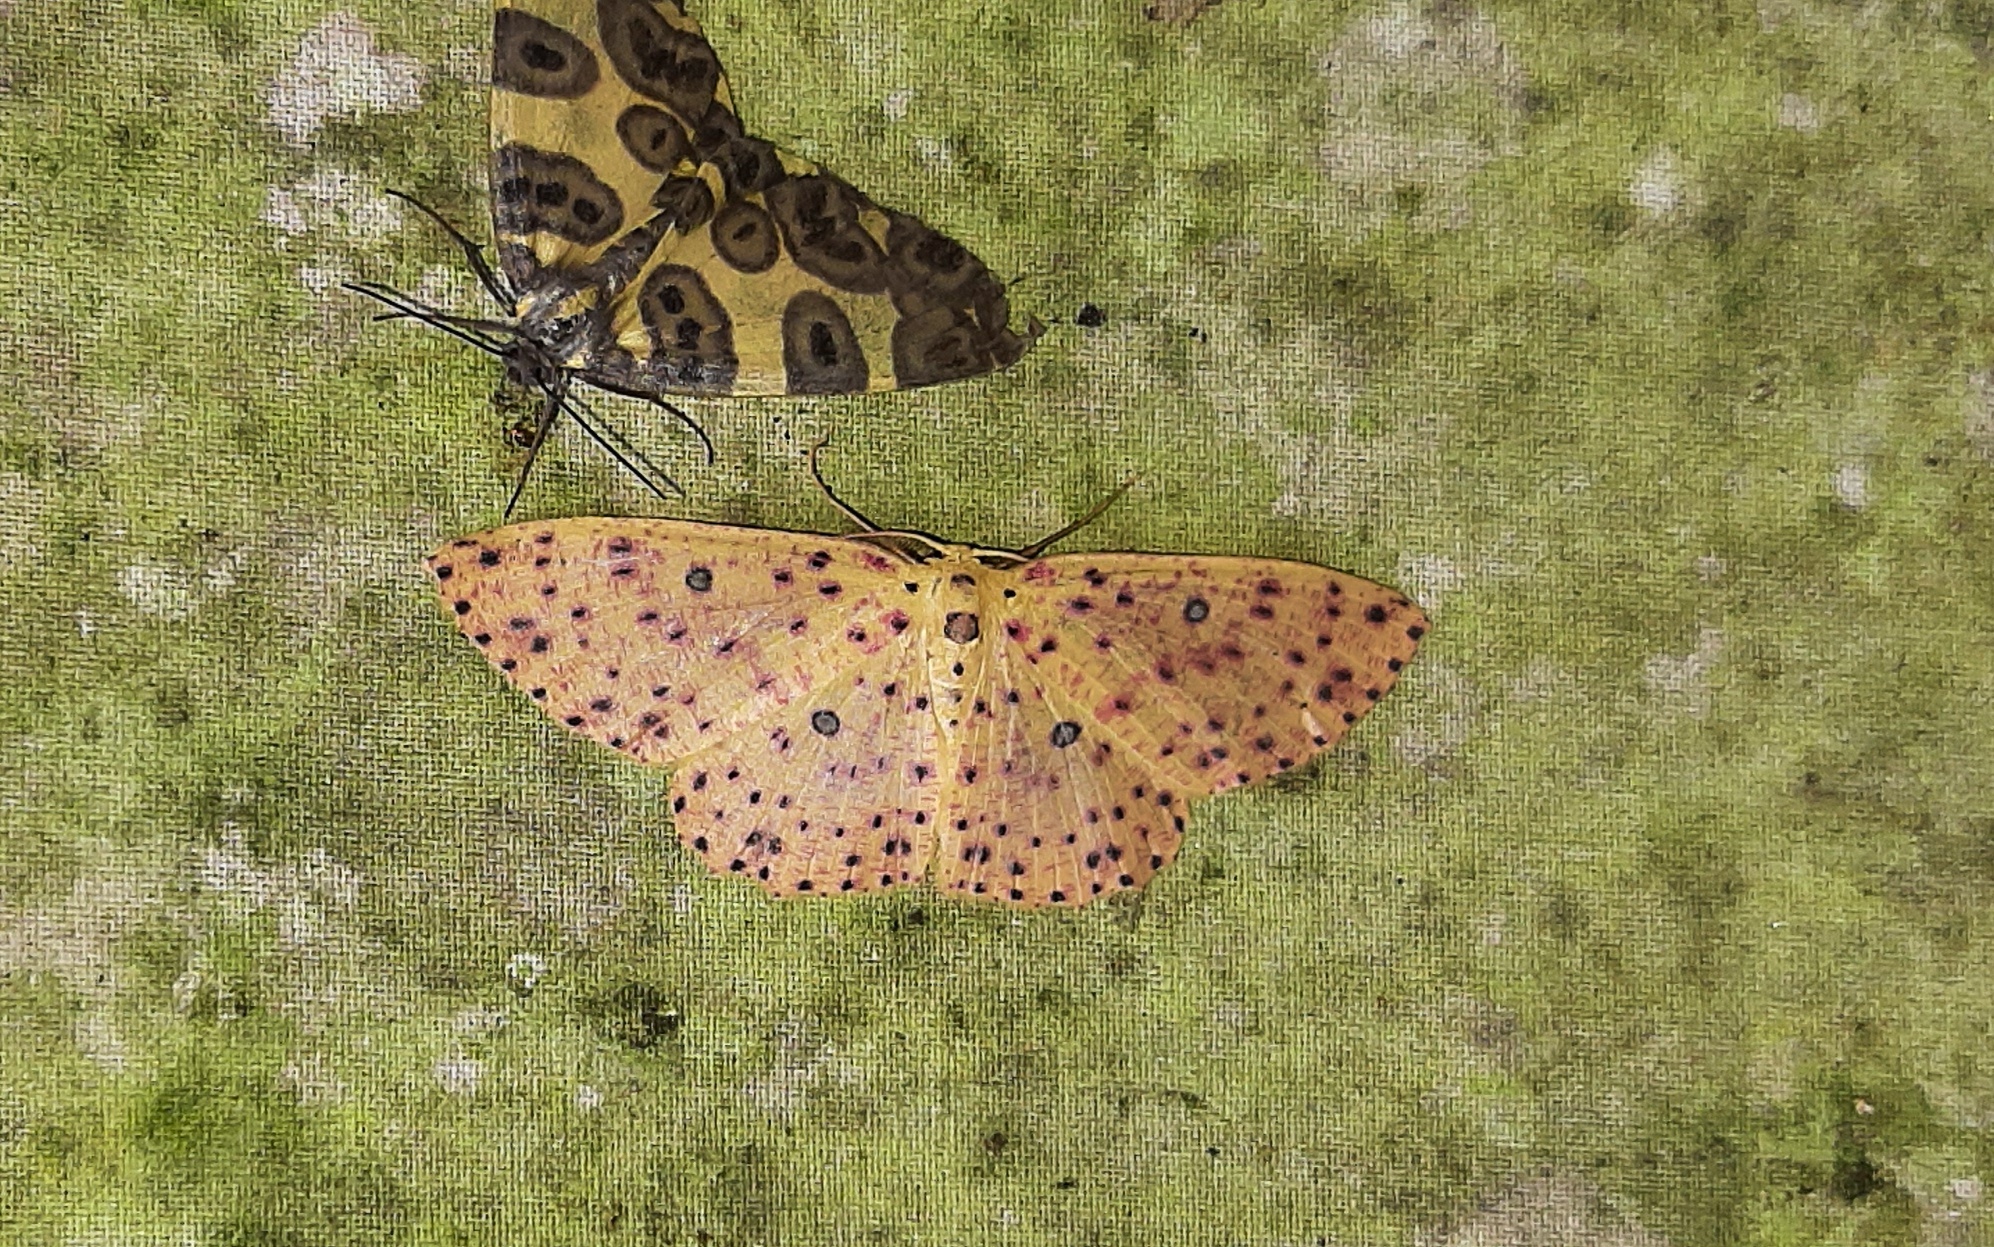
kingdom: Animalia
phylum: Arthropoda
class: Insecta
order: Lepidoptera
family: Geometridae
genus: Cyclophora
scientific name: Cyclophora
